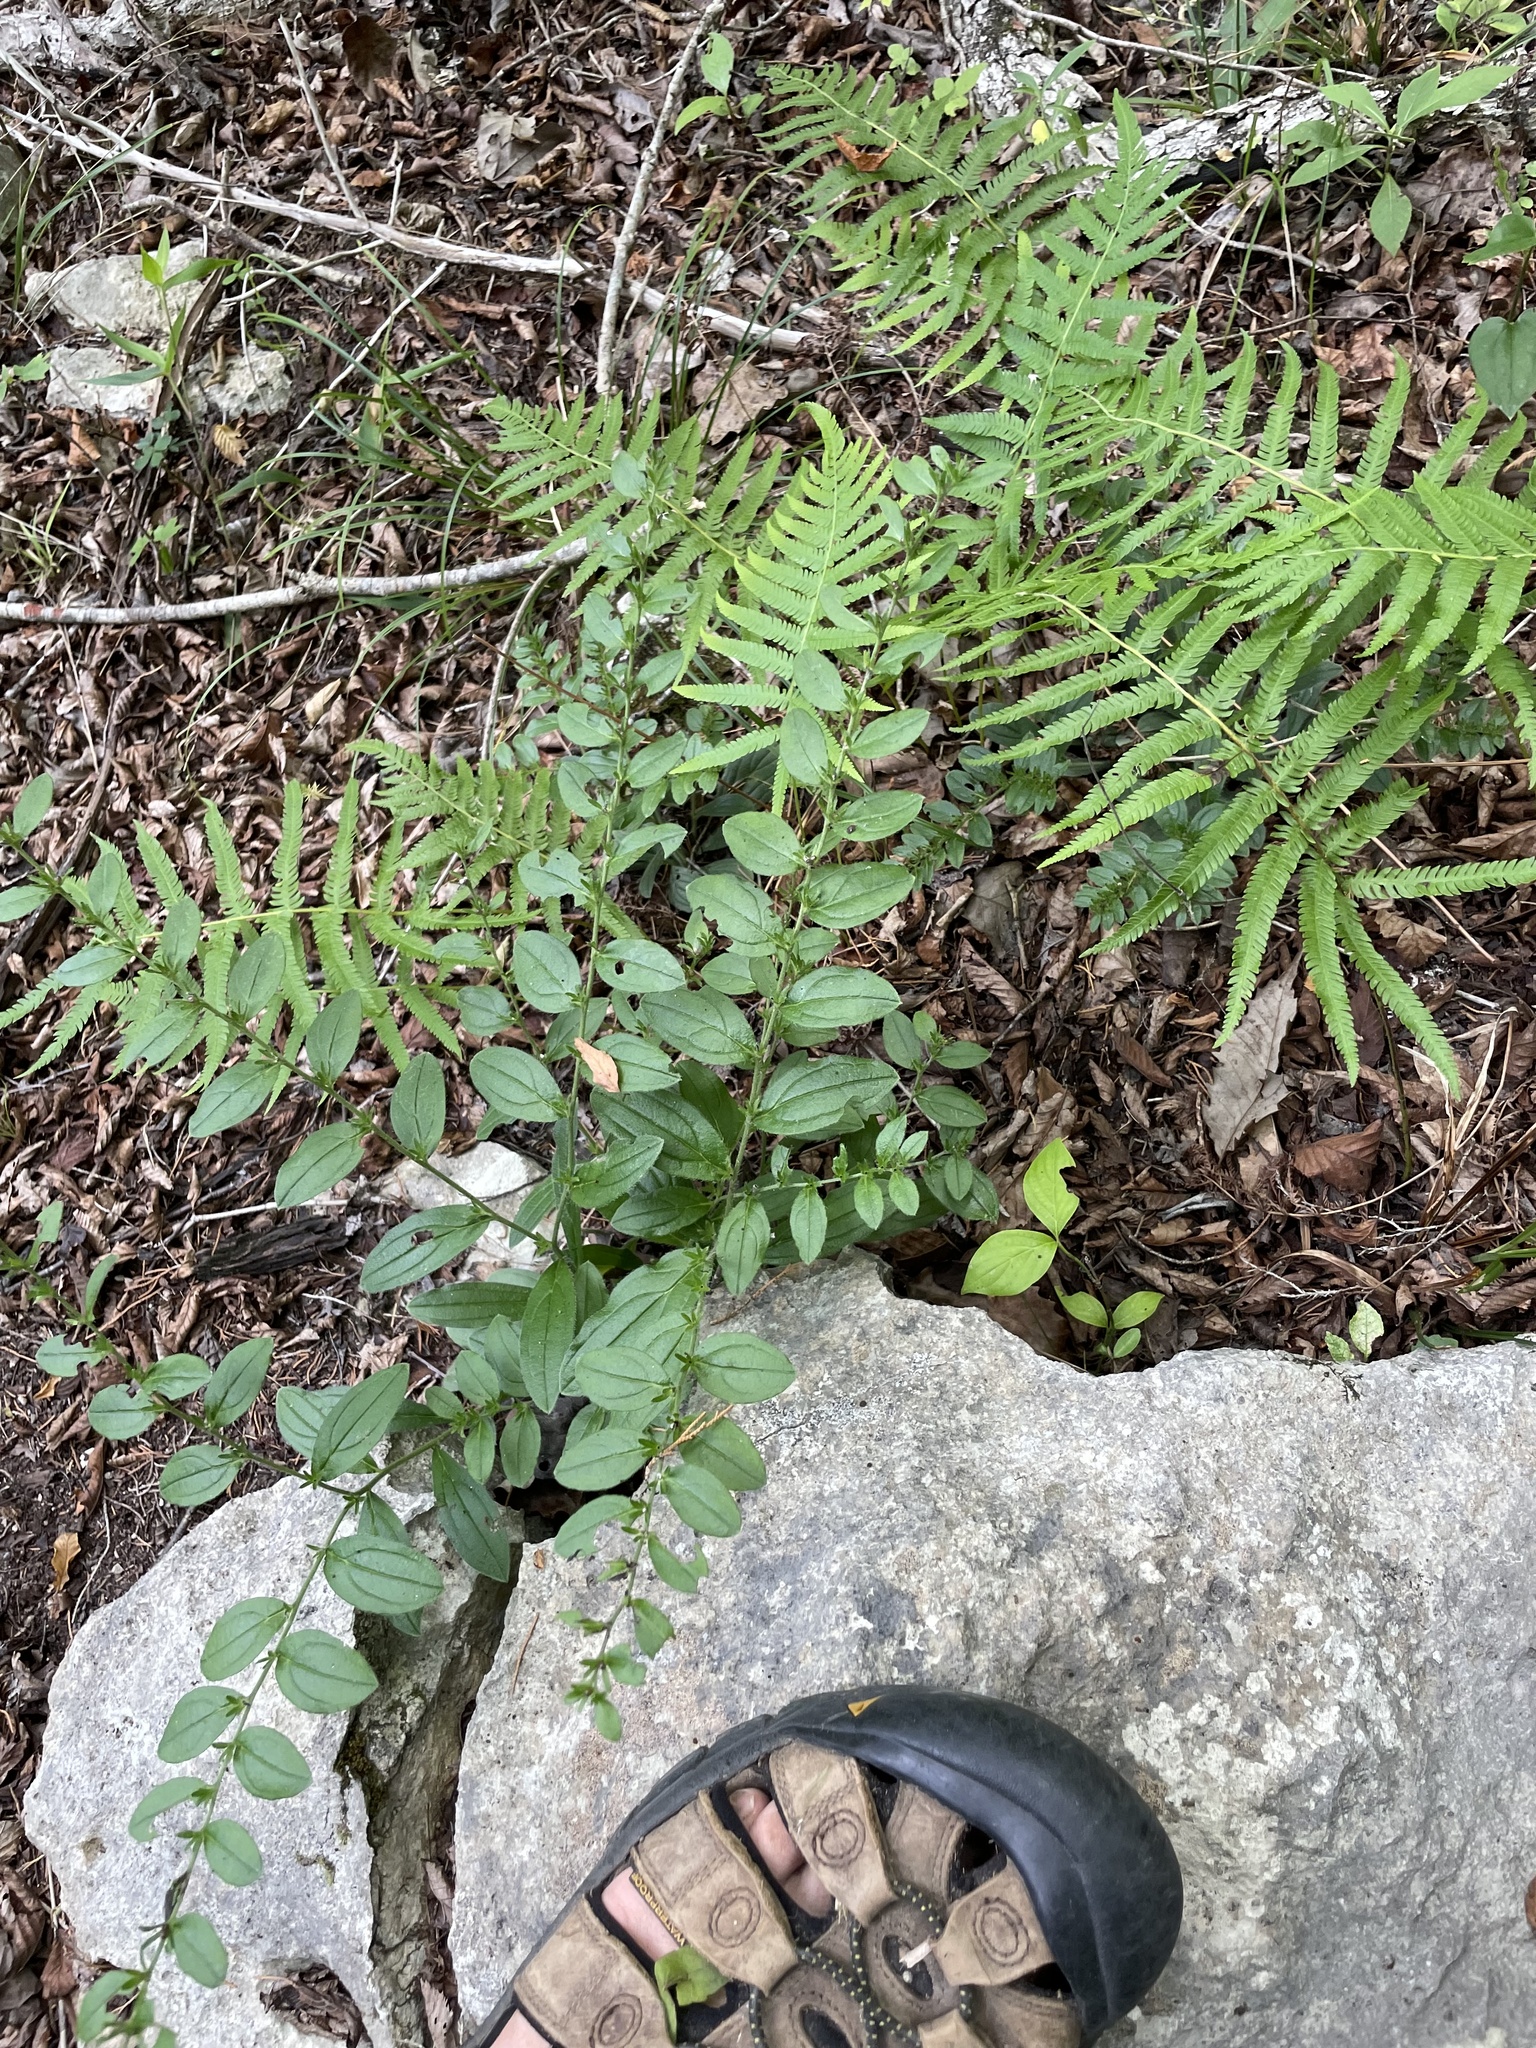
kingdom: Plantae
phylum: Tracheophyta
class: Magnoliopsida
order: Boraginales
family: Boraginaceae
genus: Lithospermum
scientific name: Lithospermum tuberosum
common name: Southern stoneseed
